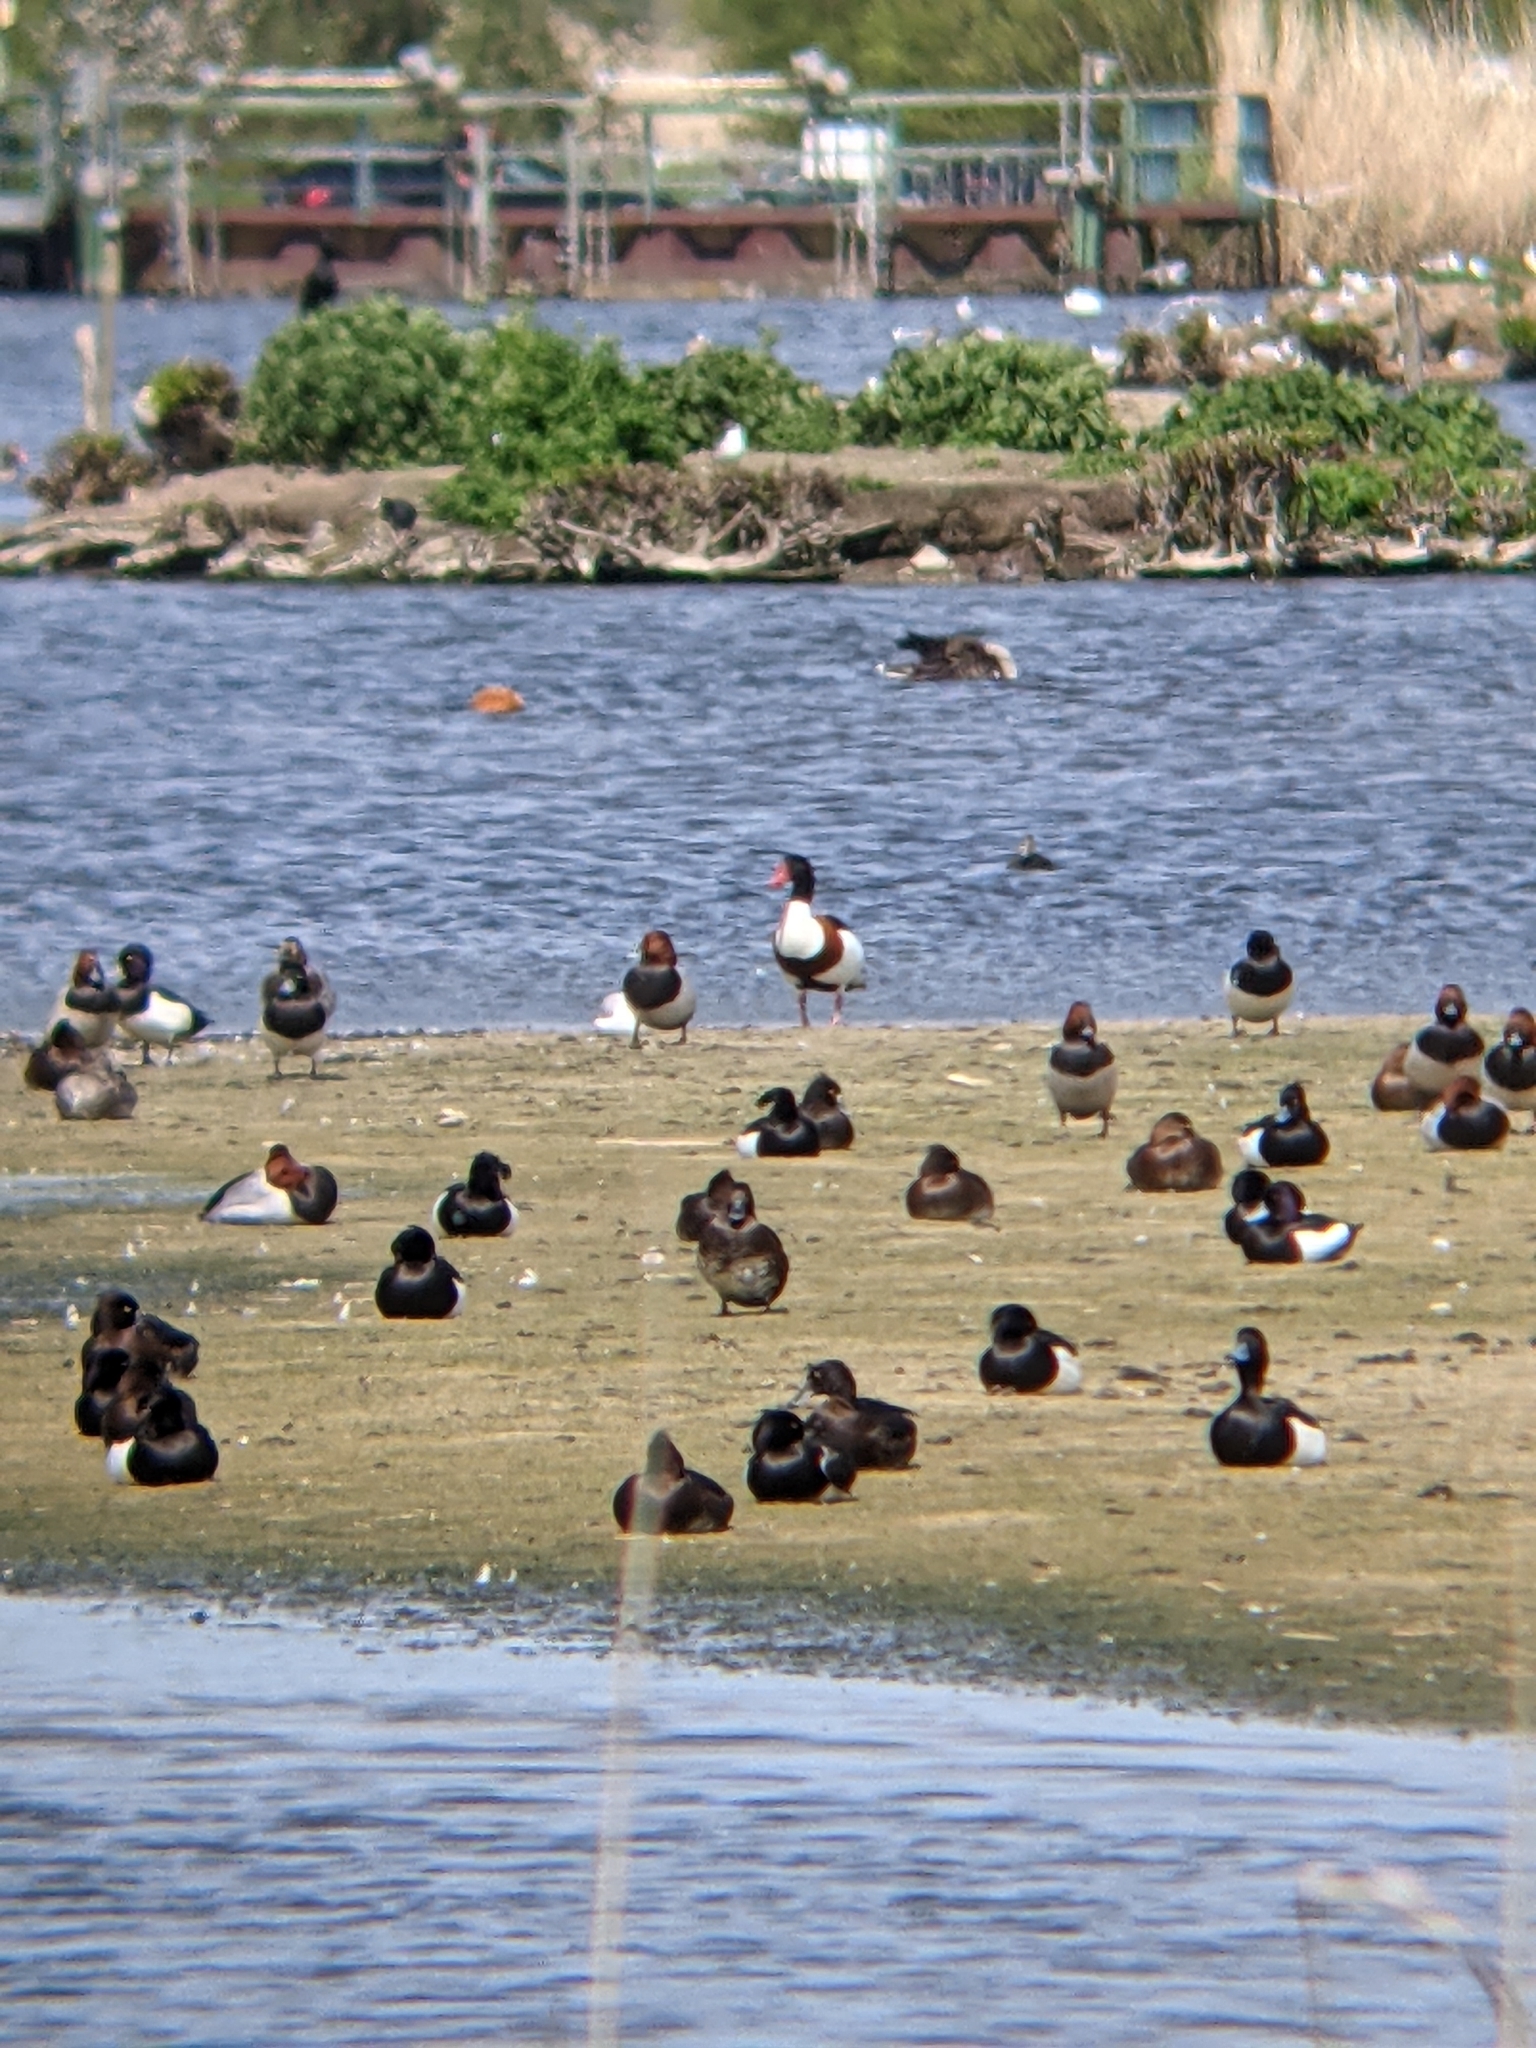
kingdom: Animalia
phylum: Chordata
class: Aves
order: Anseriformes
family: Anatidae
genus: Tadorna
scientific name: Tadorna tadorna
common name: Common shelduck
